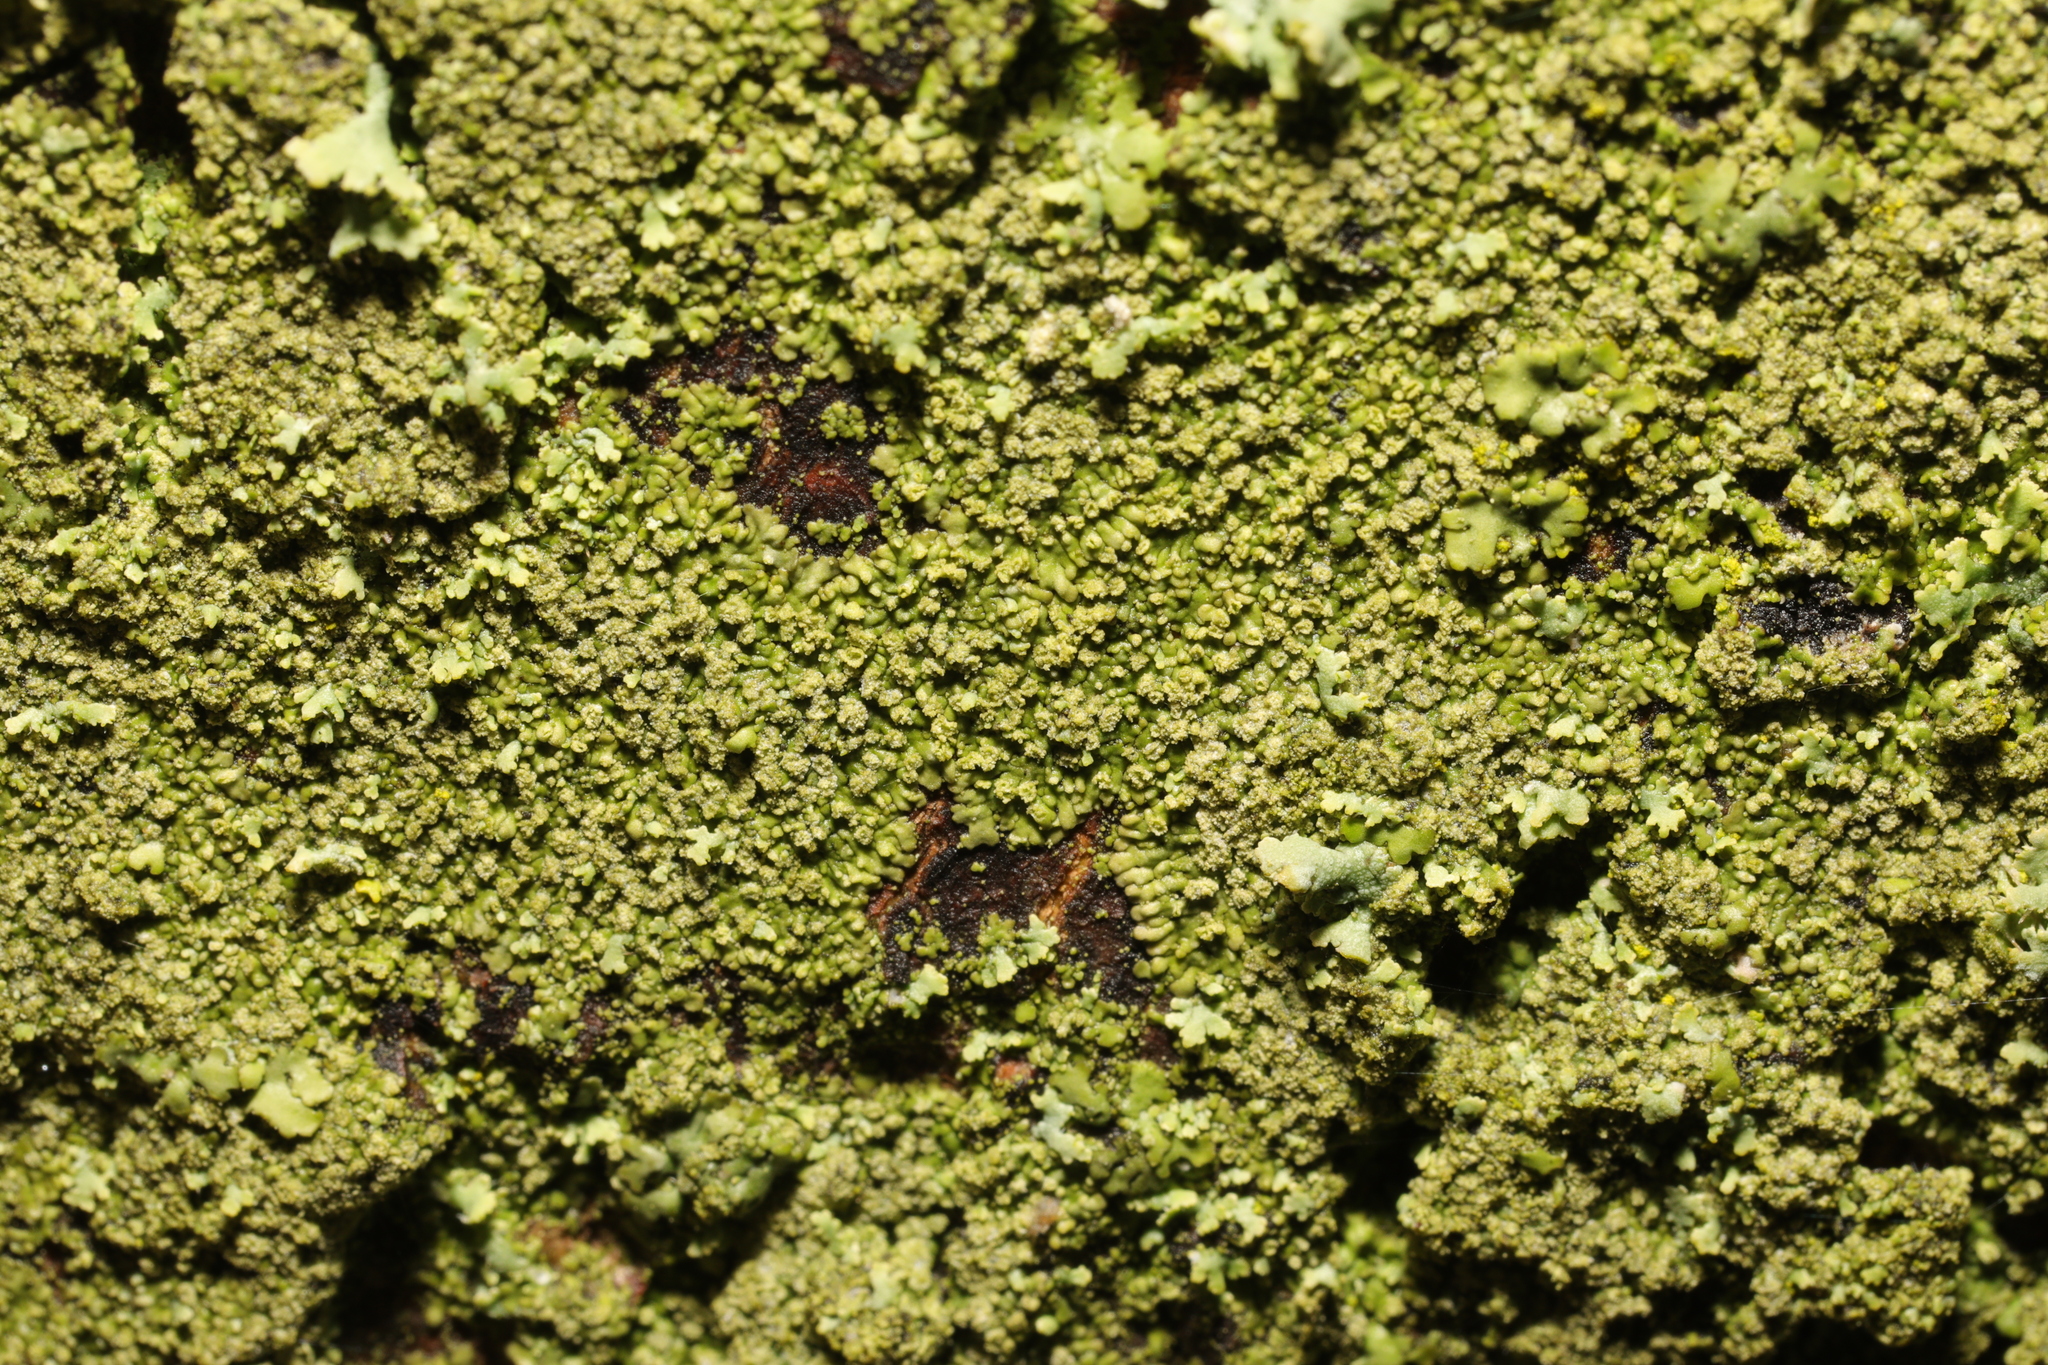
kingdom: Fungi
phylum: Ascomycota
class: Lecanoromycetes
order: Caliciales
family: Physciaceae
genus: Phaeophyscia
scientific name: Phaeophyscia orbicularis
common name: Mealy shadow lichen
